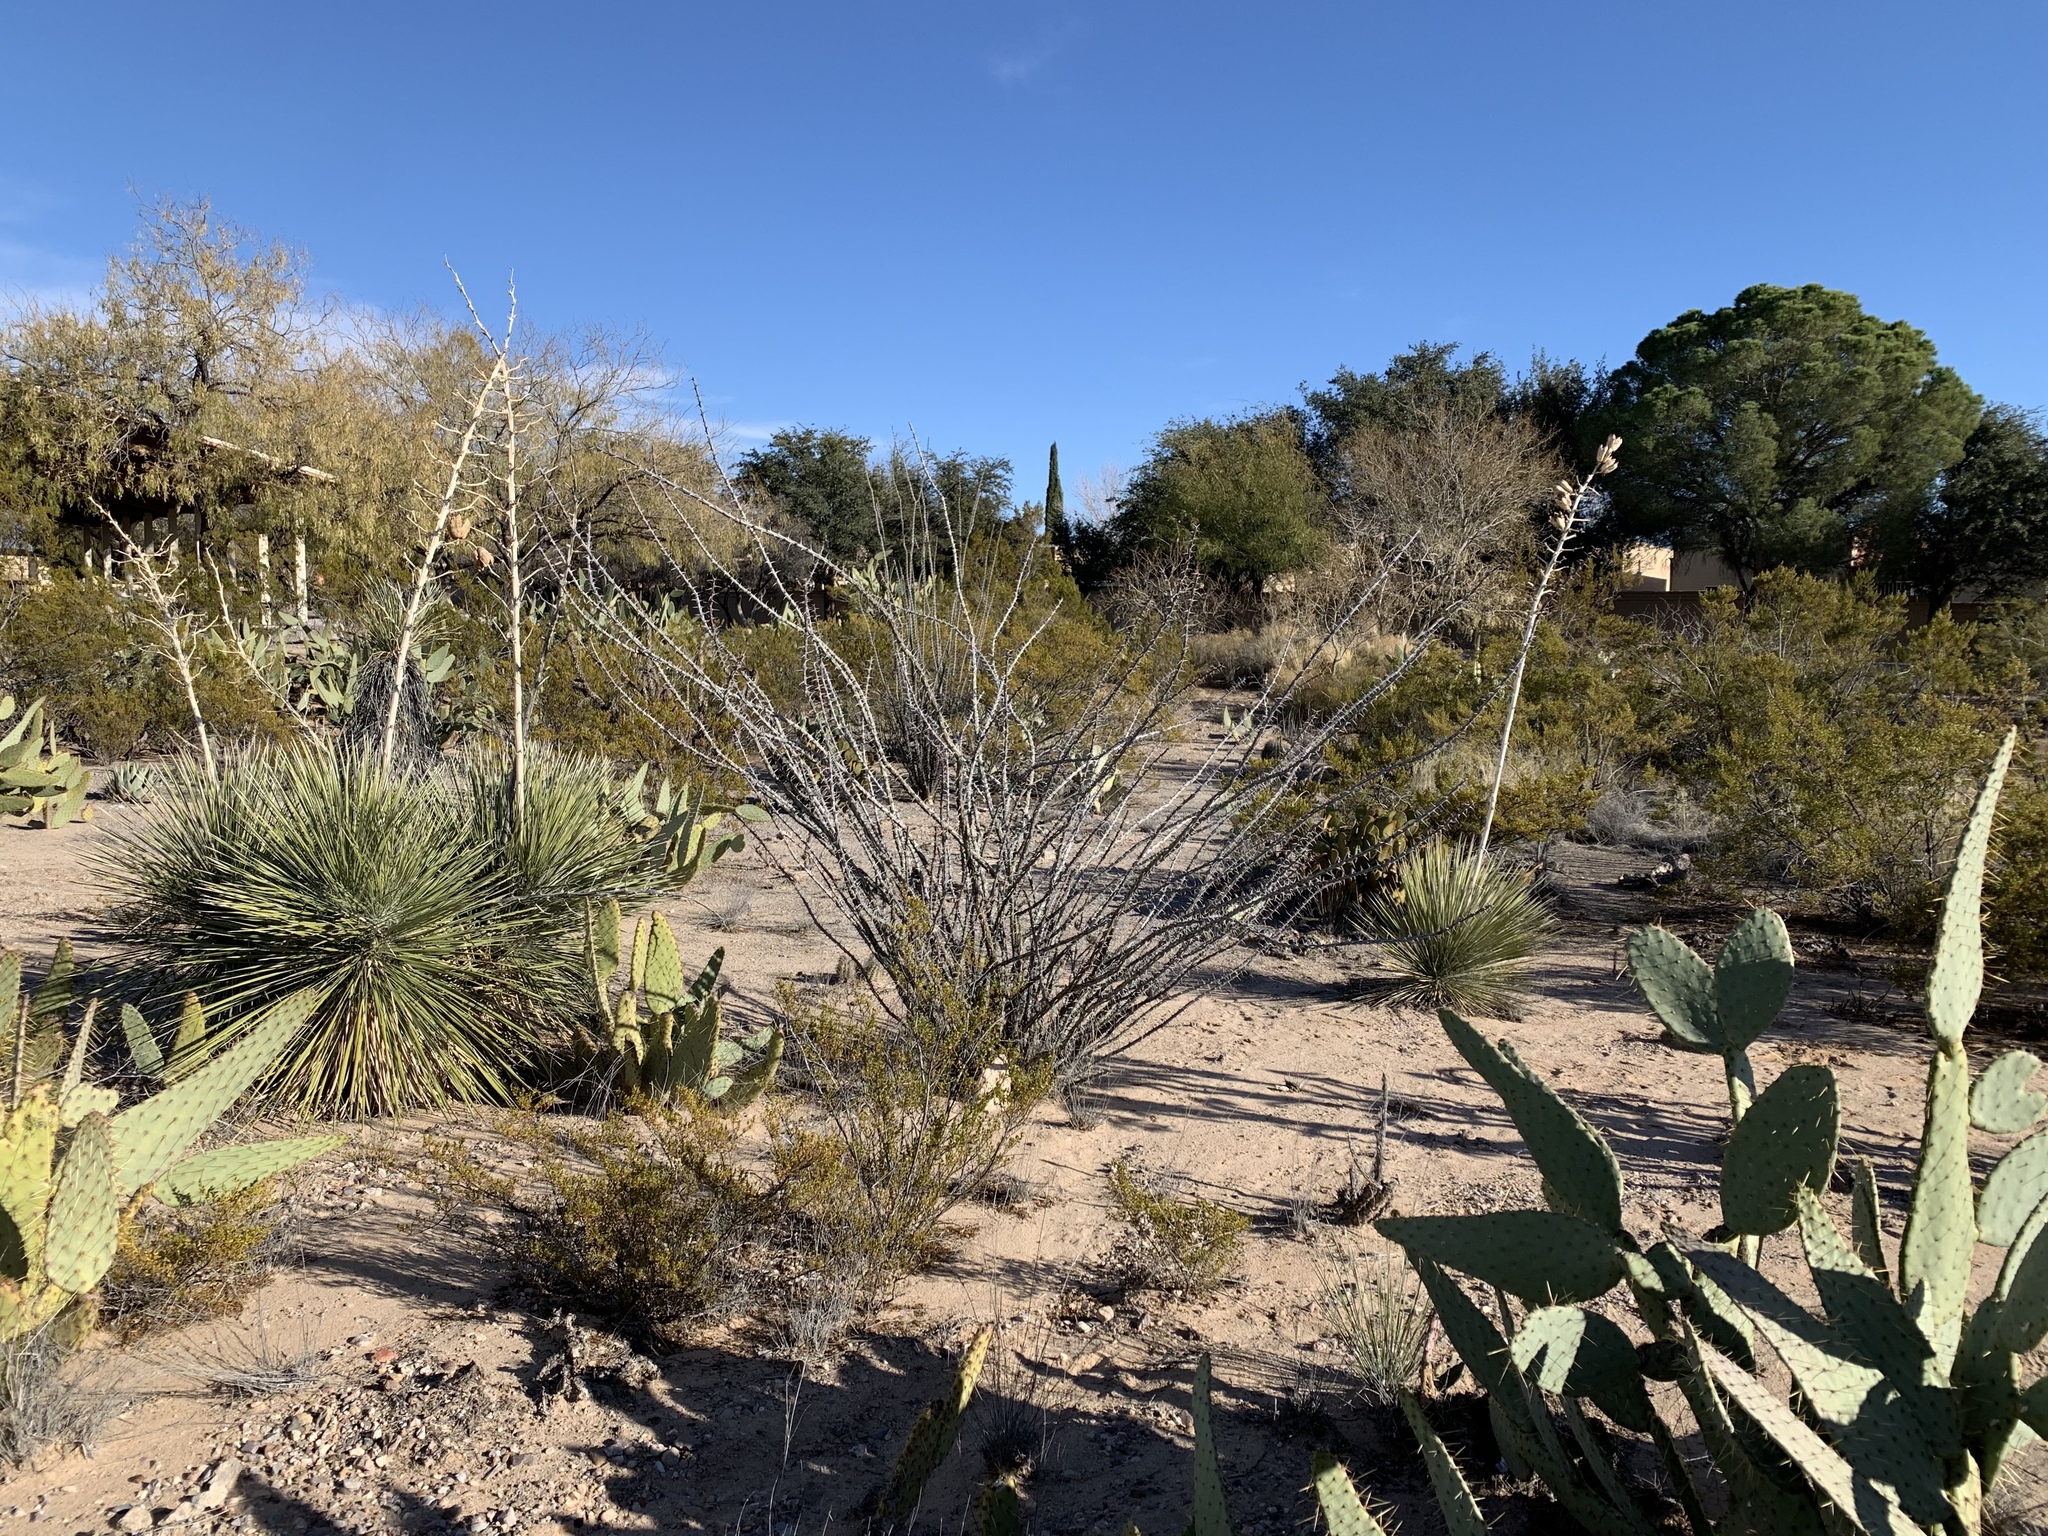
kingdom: Plantae
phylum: Tracheophyta
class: Magnoliopsida
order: Ericales
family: Fouquieriaceae
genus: Fouquieria
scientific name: Fouquieria splendens
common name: Vine-cactus
